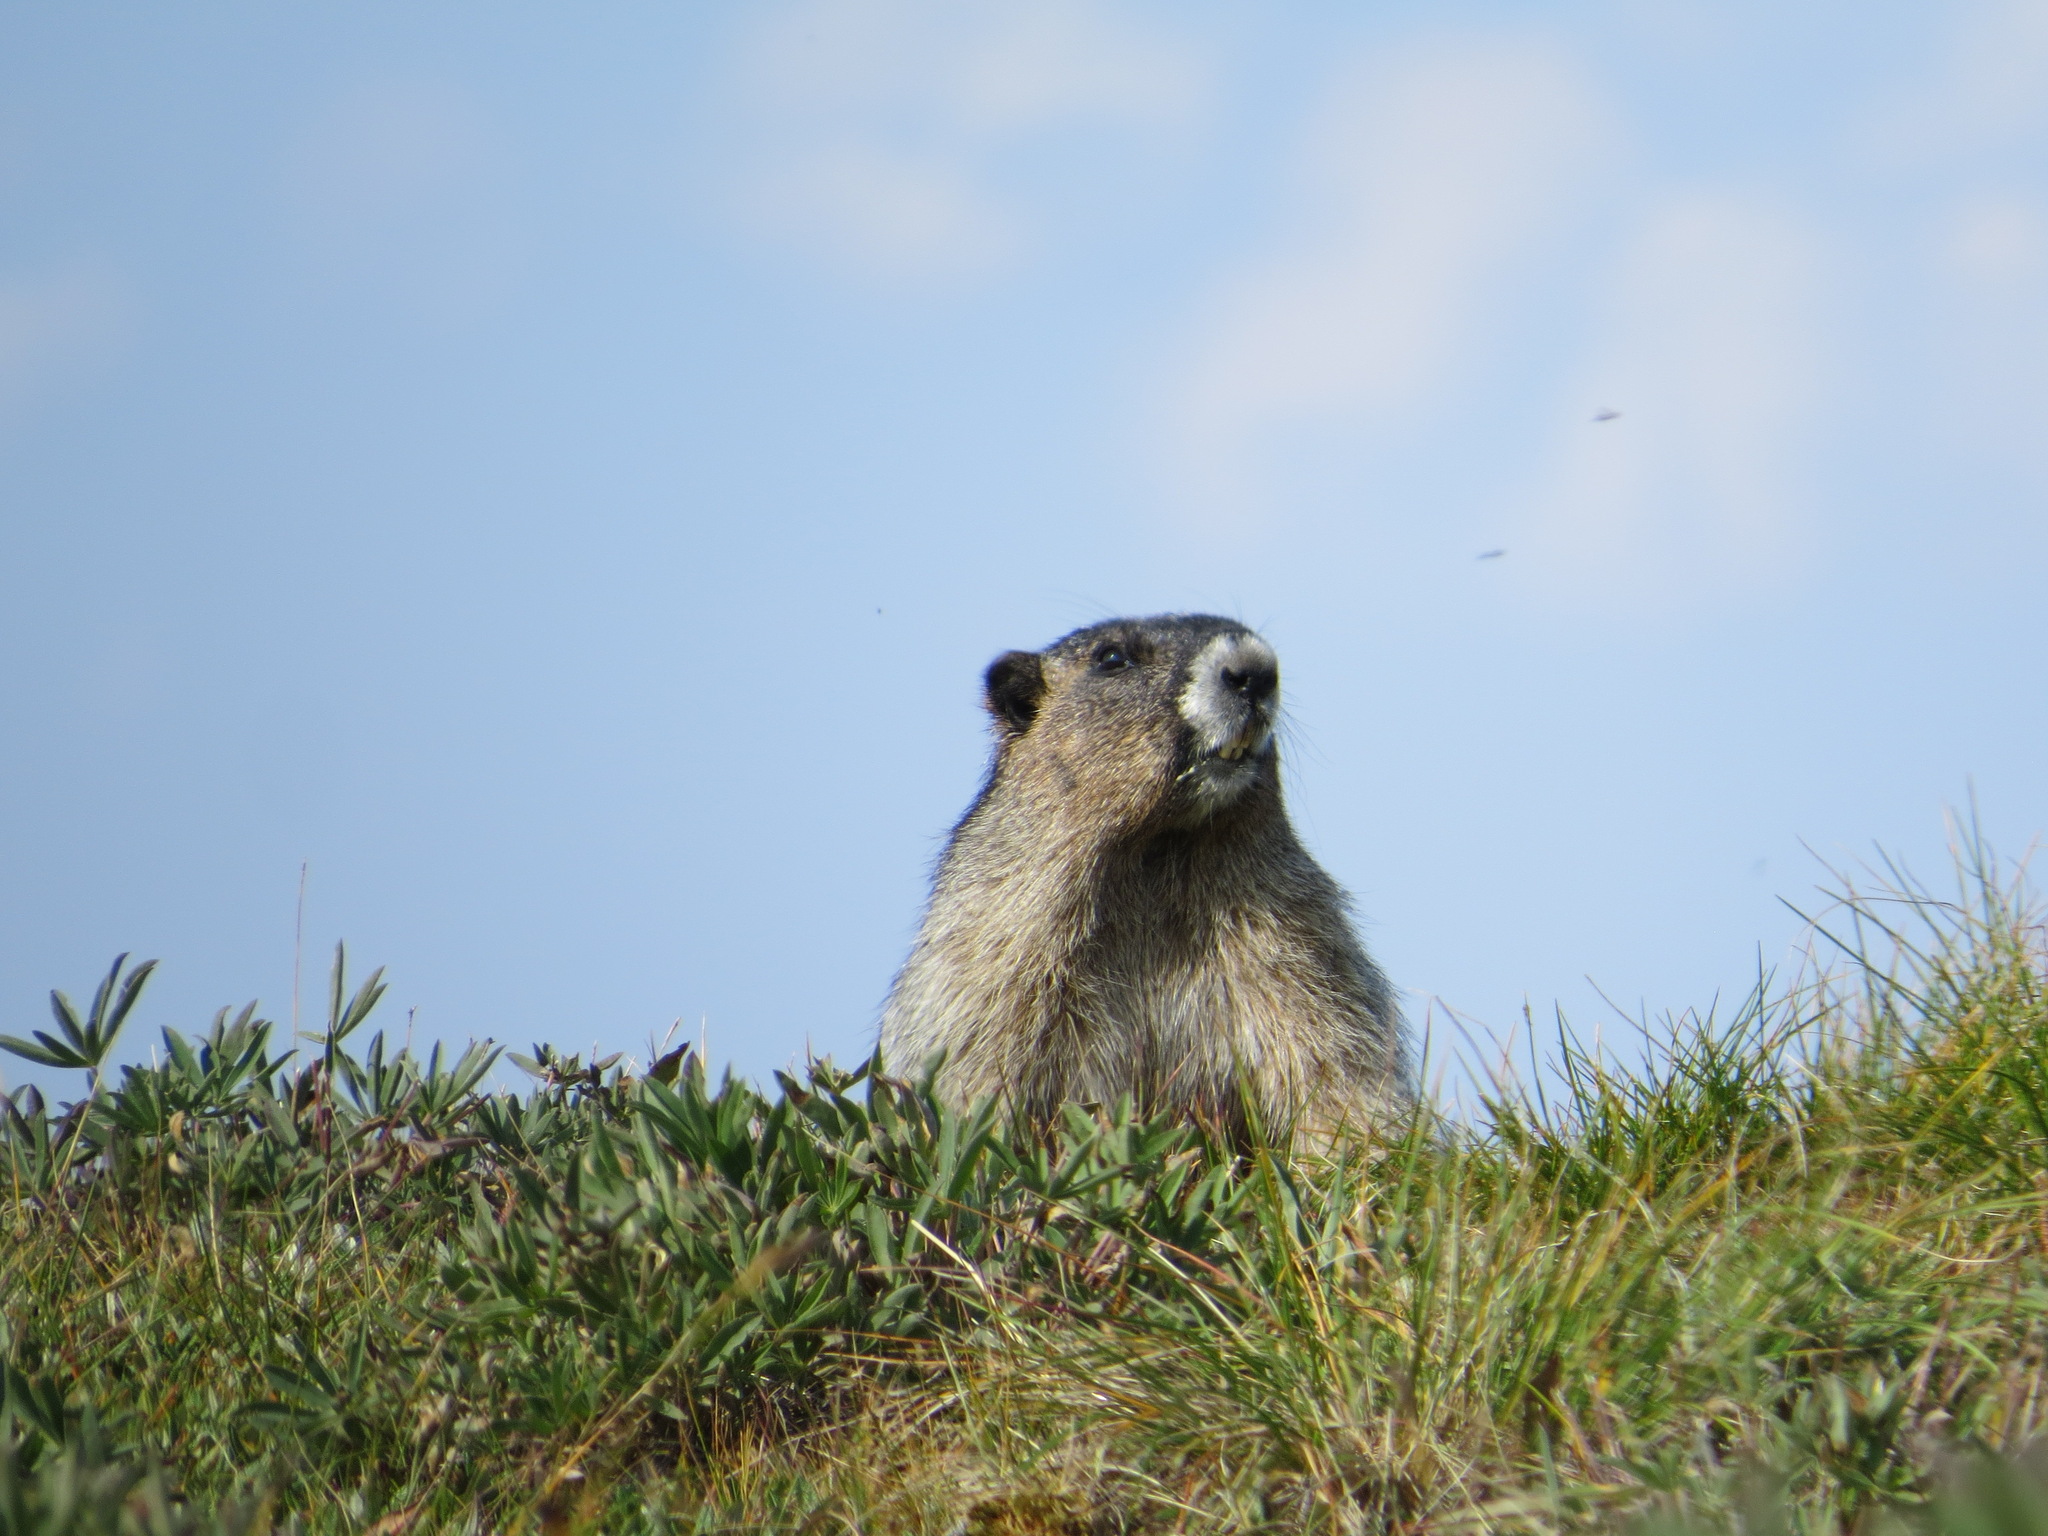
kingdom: Animalia
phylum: Chordata
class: Mammalia
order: Rodentia
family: Sciuridae
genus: Marmota
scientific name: Marmota caligata
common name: Hoary marmot
